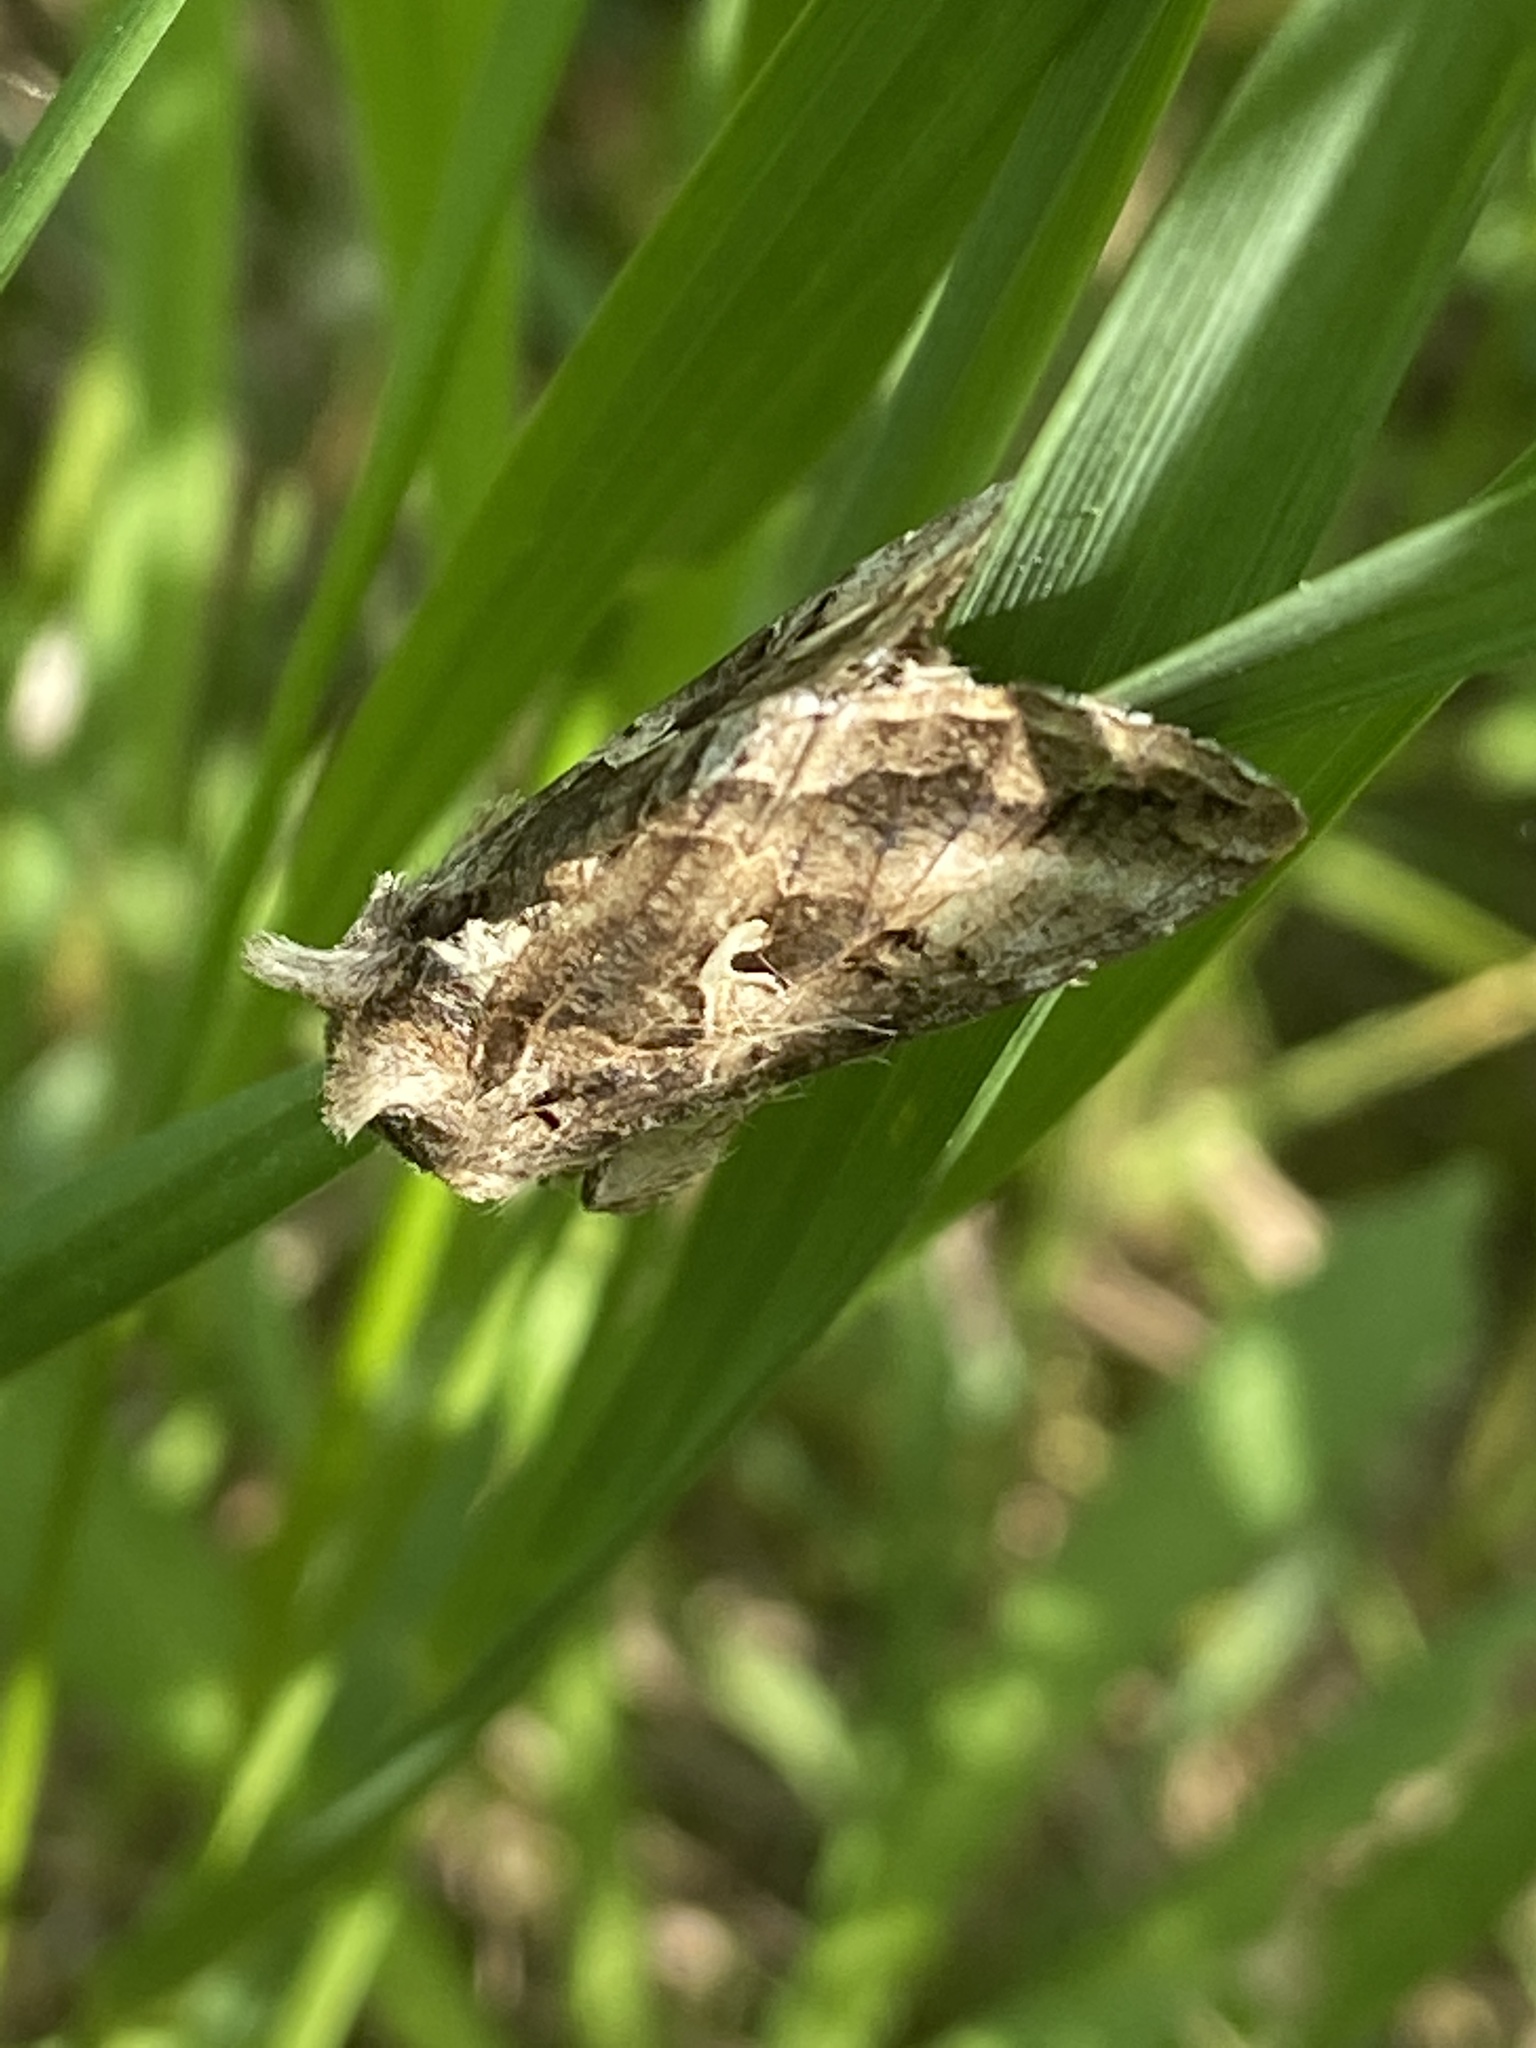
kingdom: Animalia
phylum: Arthropoda
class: Insecta
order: Lepidoptera
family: Noctuidae
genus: Autographa
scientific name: Autographa gamma
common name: Silver y
